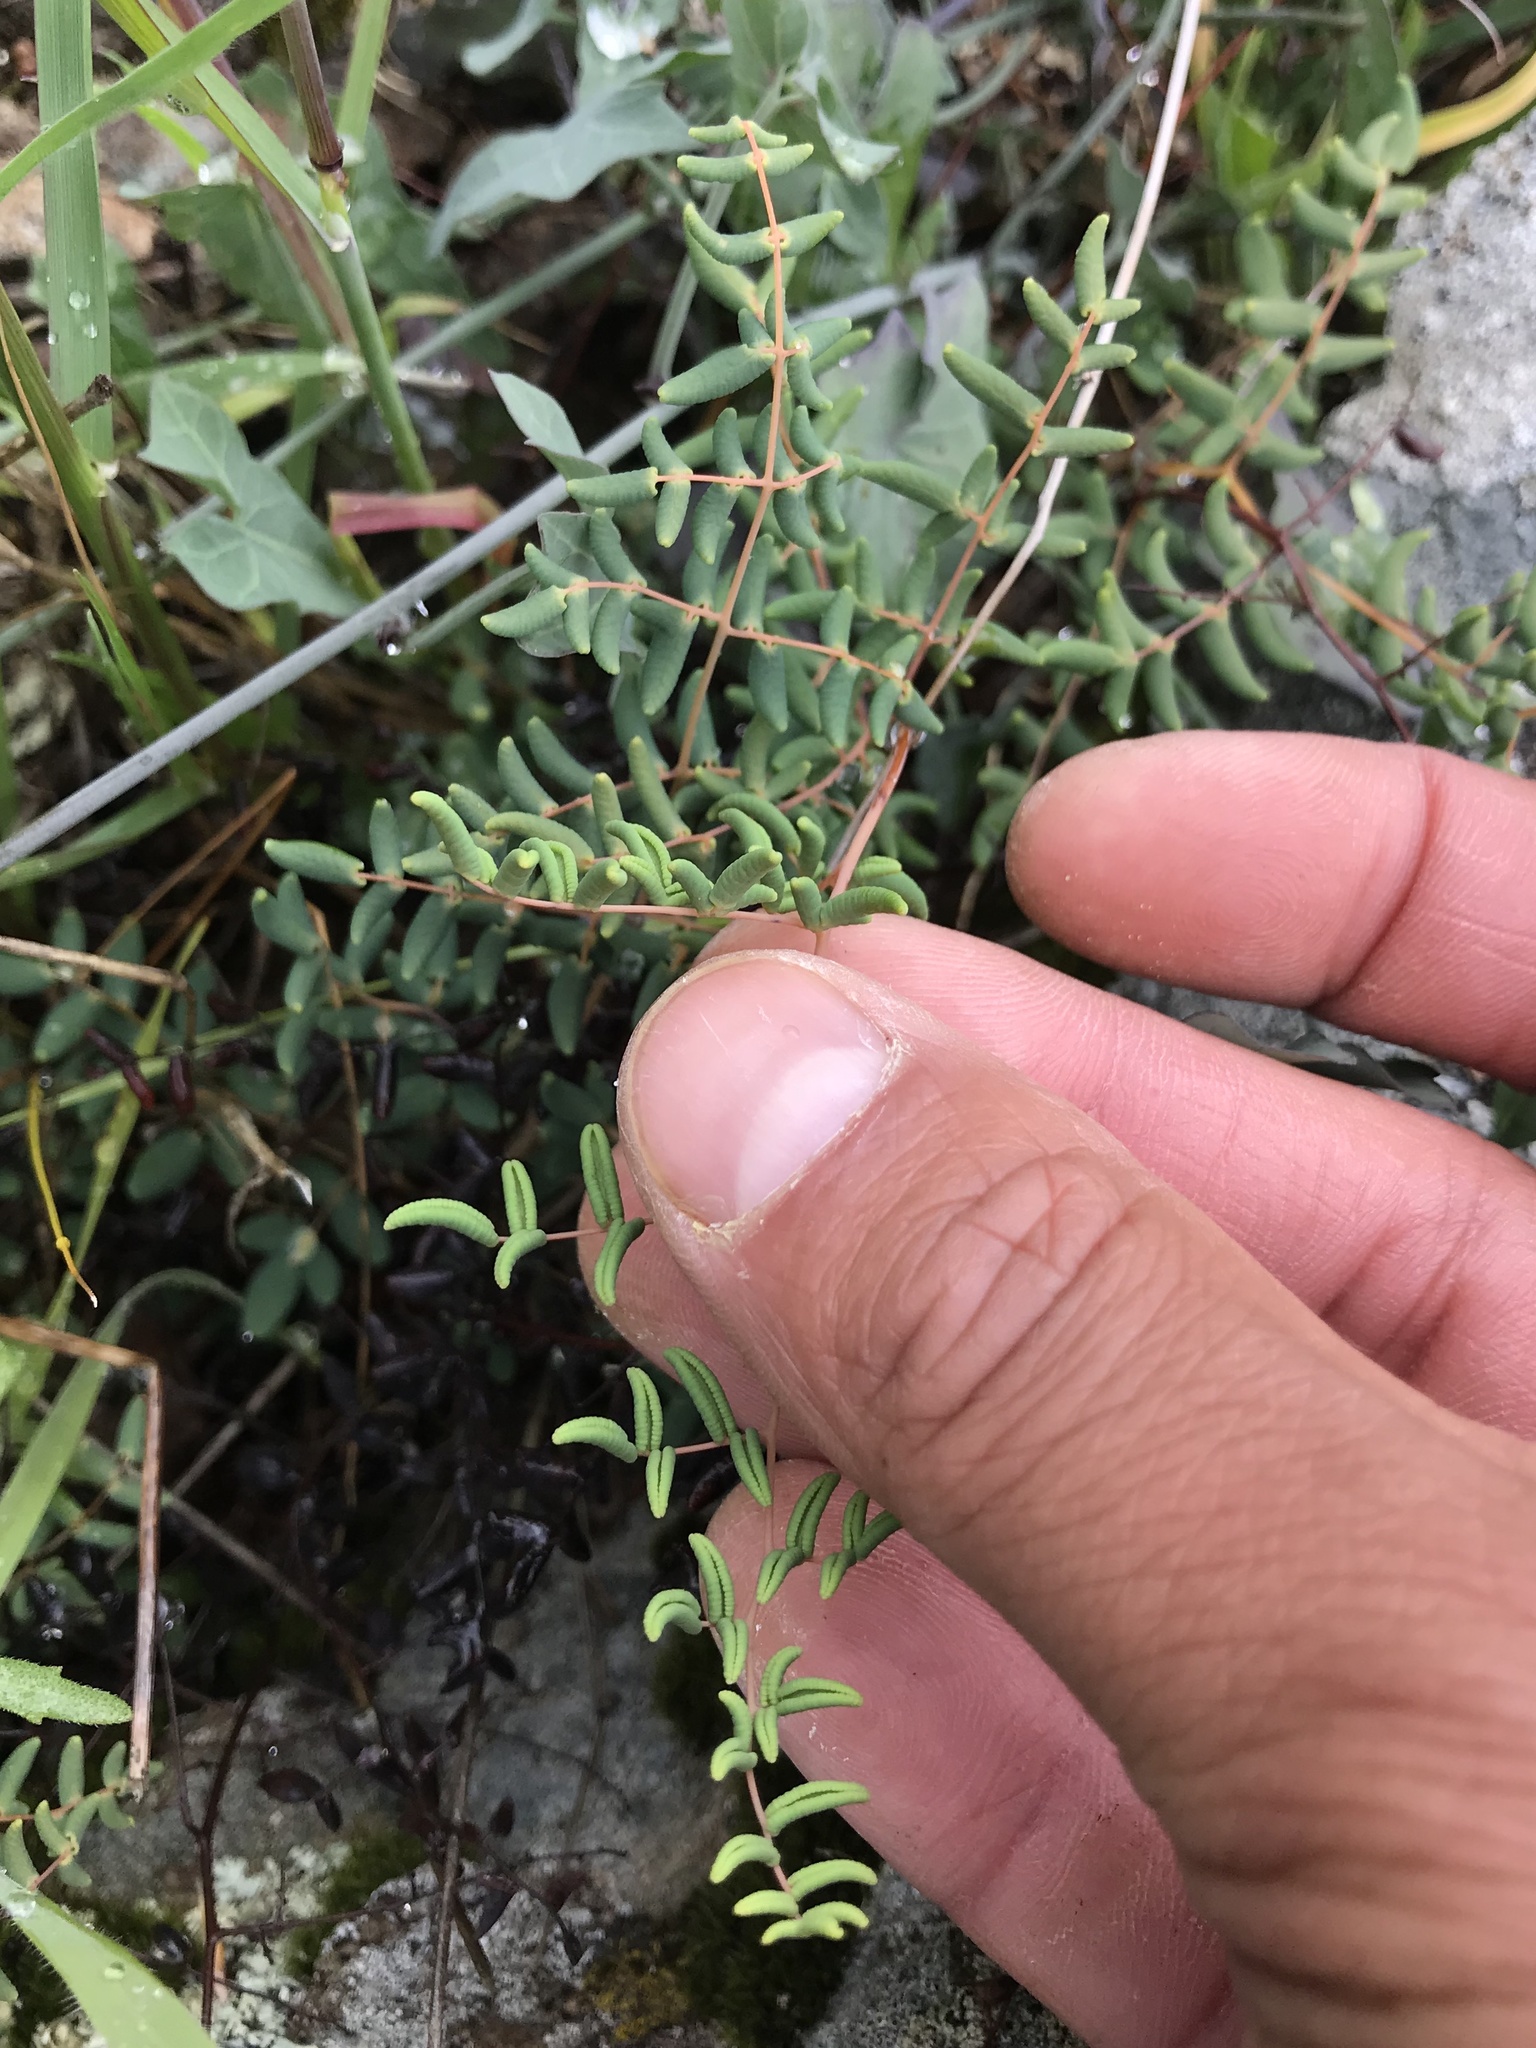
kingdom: Plantae
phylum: Tracheophyta
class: Polypodiopsida
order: Polypodiales
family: Pteridaceae
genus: Pellaea
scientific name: Pellaea andromedifolia
